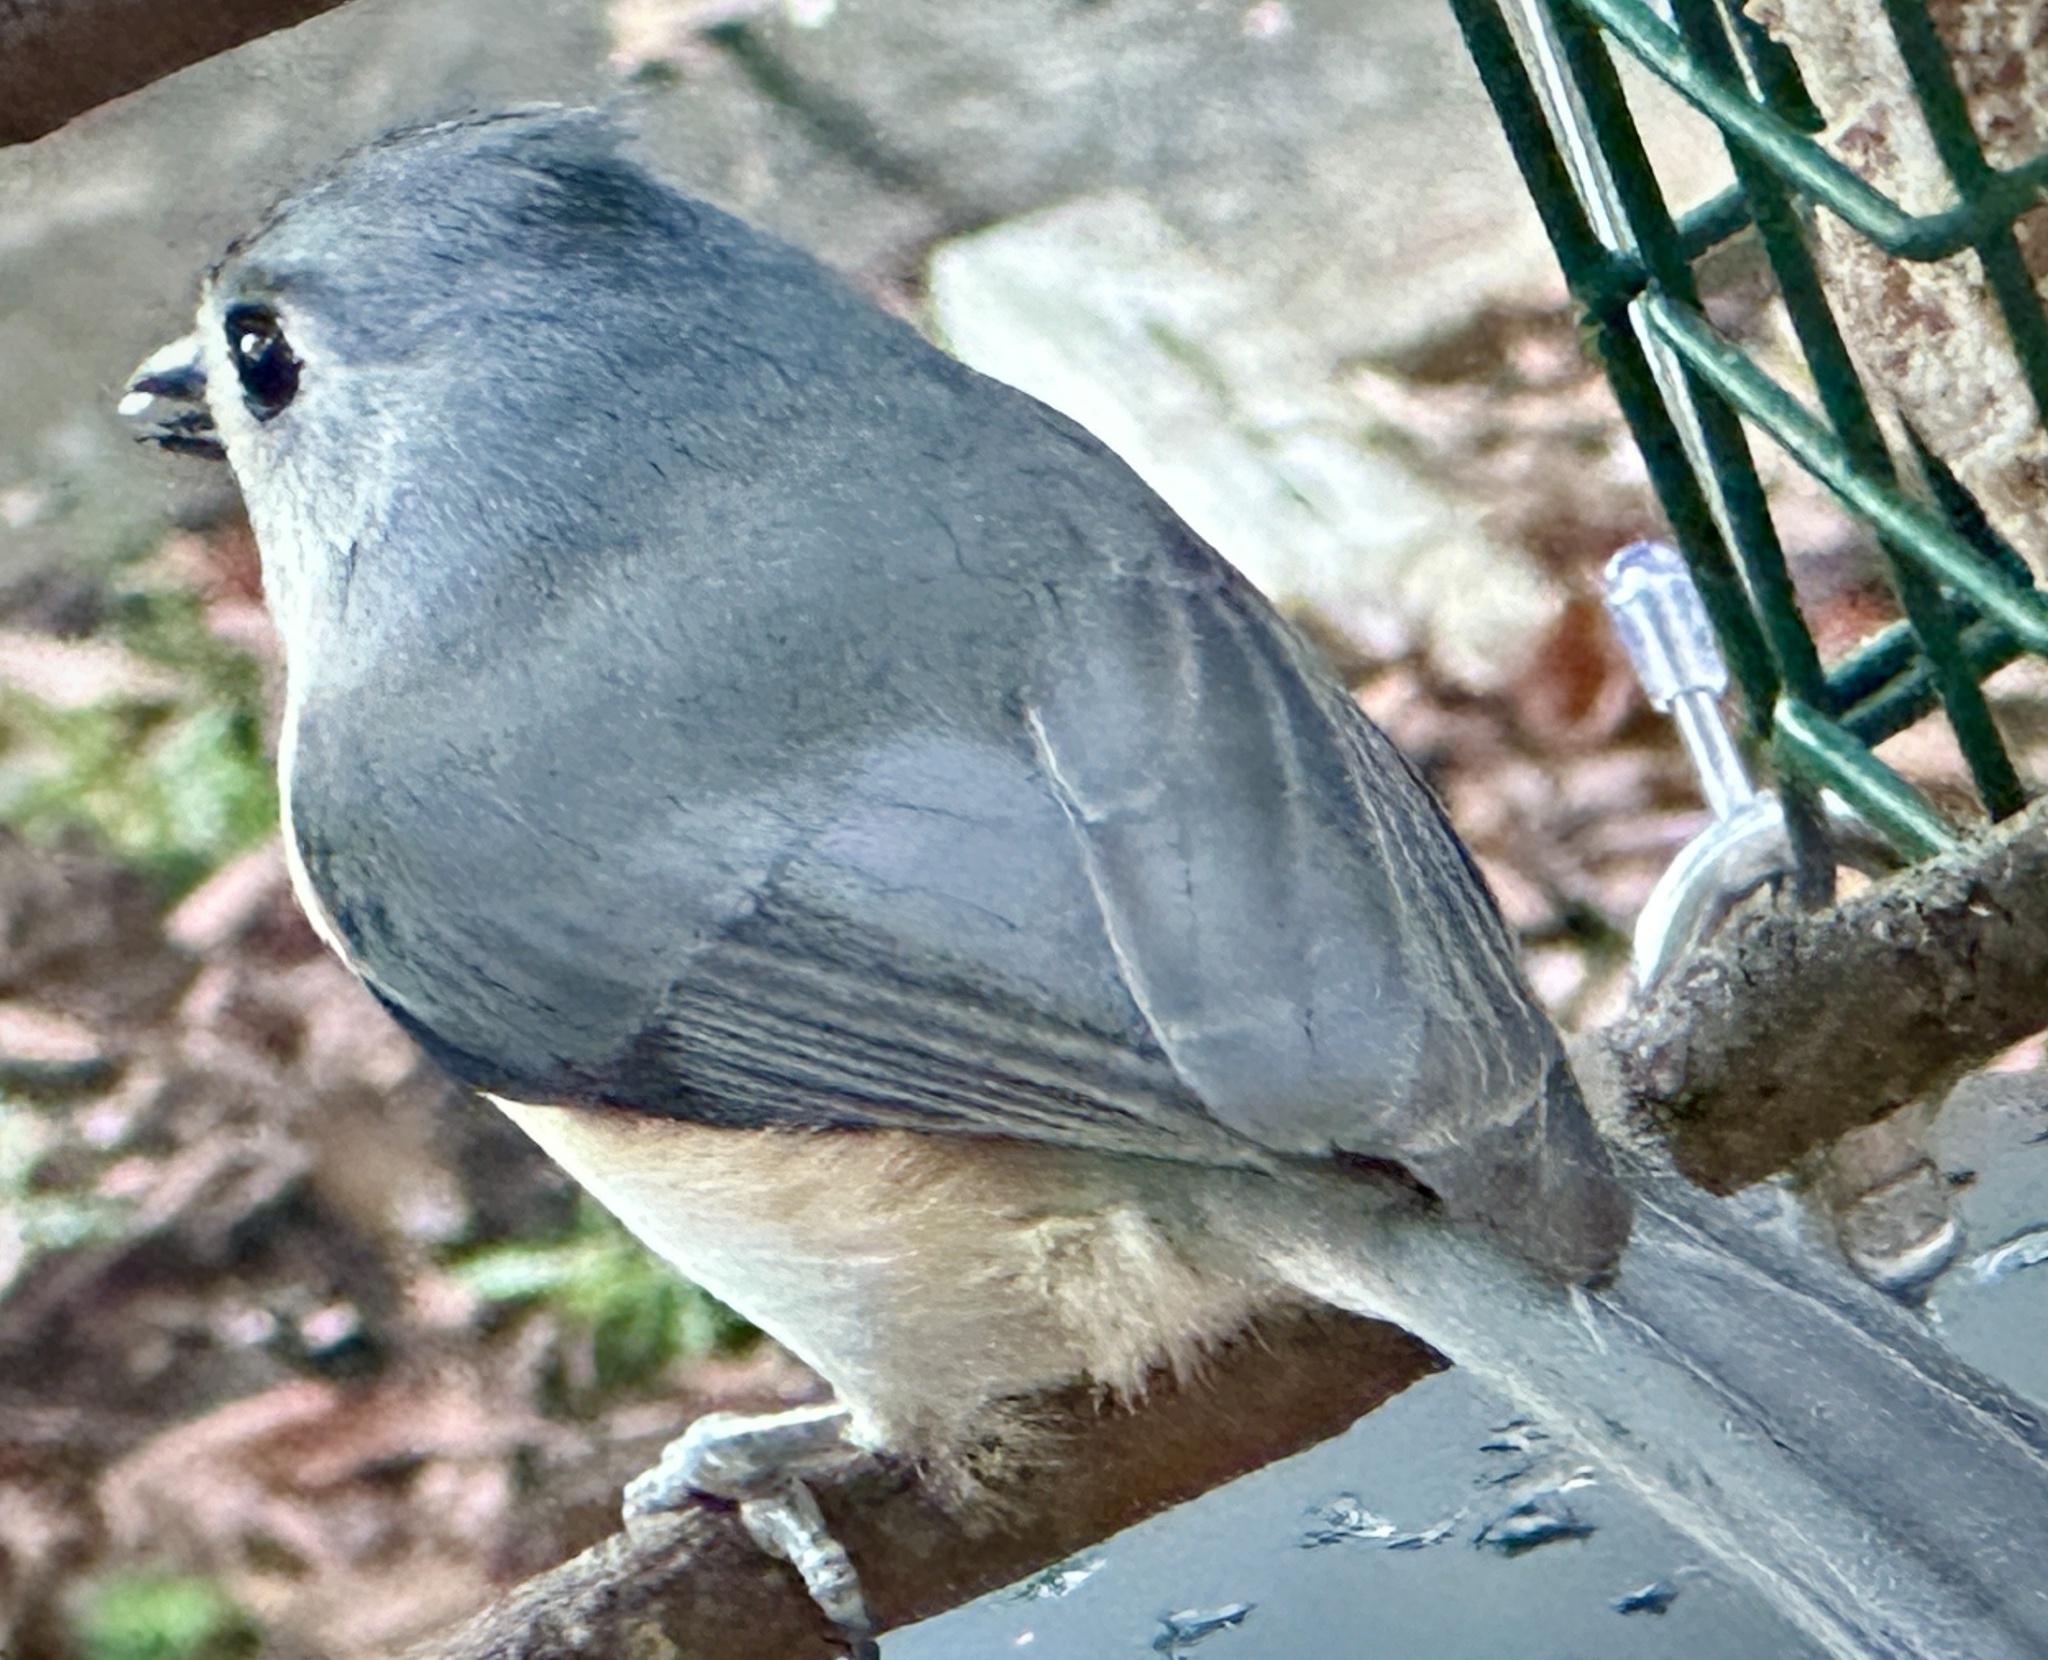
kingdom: Animalia
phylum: Chordata
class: Aves
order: Passeriformes
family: Paridae
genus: Baeolophus
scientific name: Baeolophus bicolor
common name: Tufted titmouse
